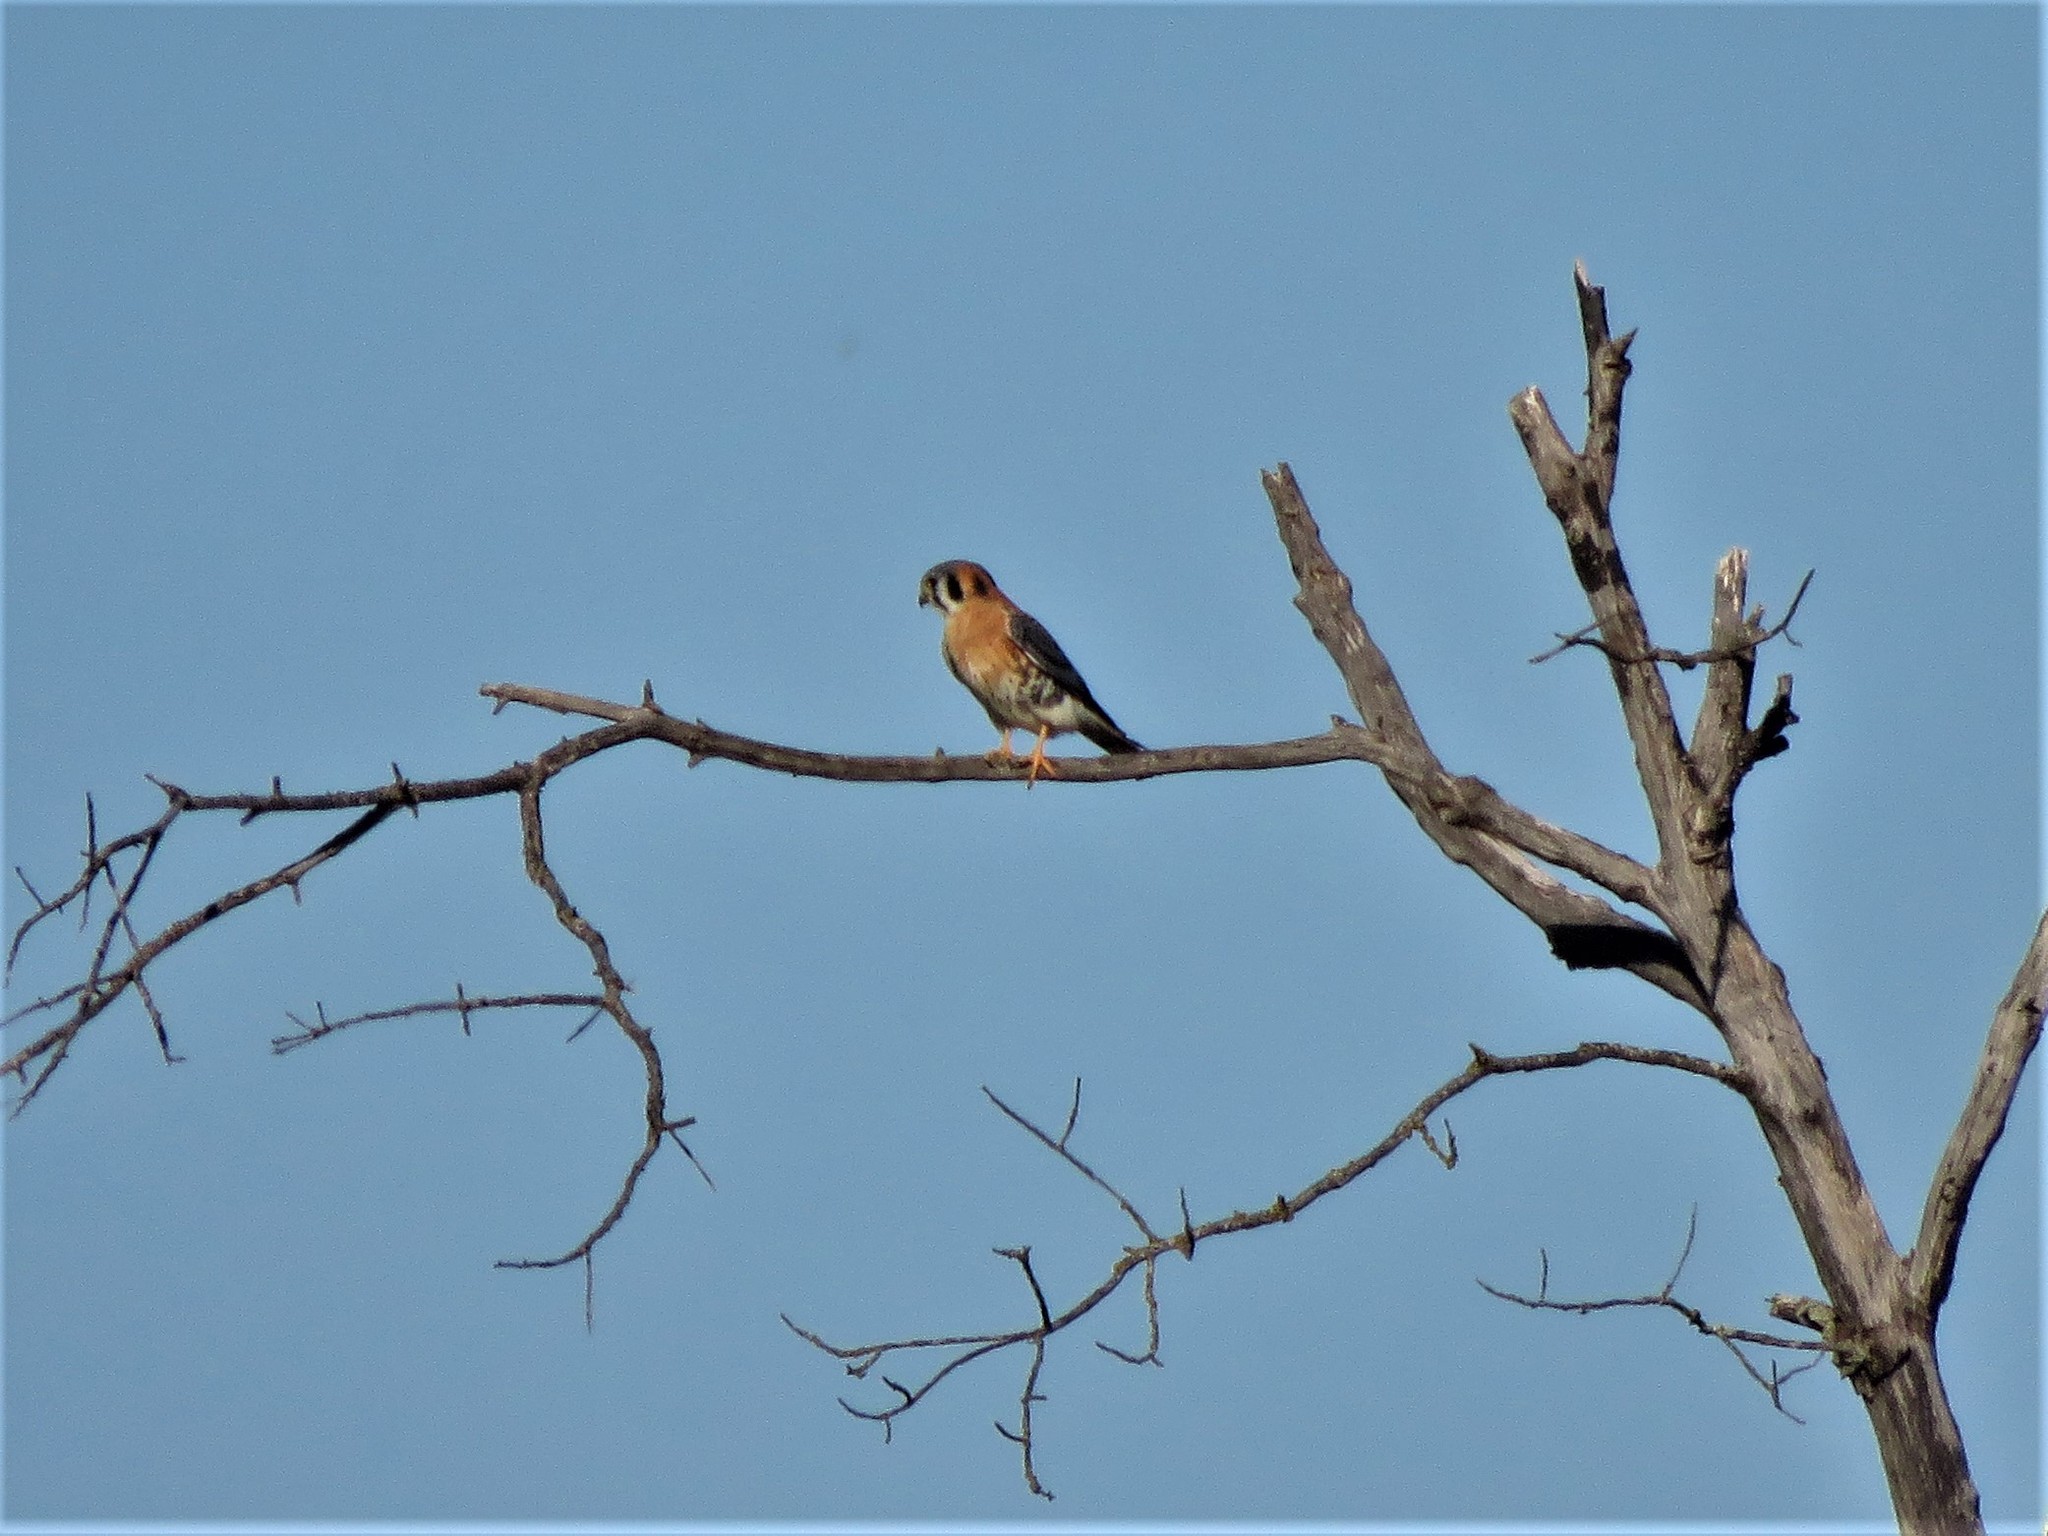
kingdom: Animalia
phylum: Chordata
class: Aves
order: Falconiformes
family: Falconidae
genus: Falco
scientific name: Falco sparverius
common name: American kestrel
